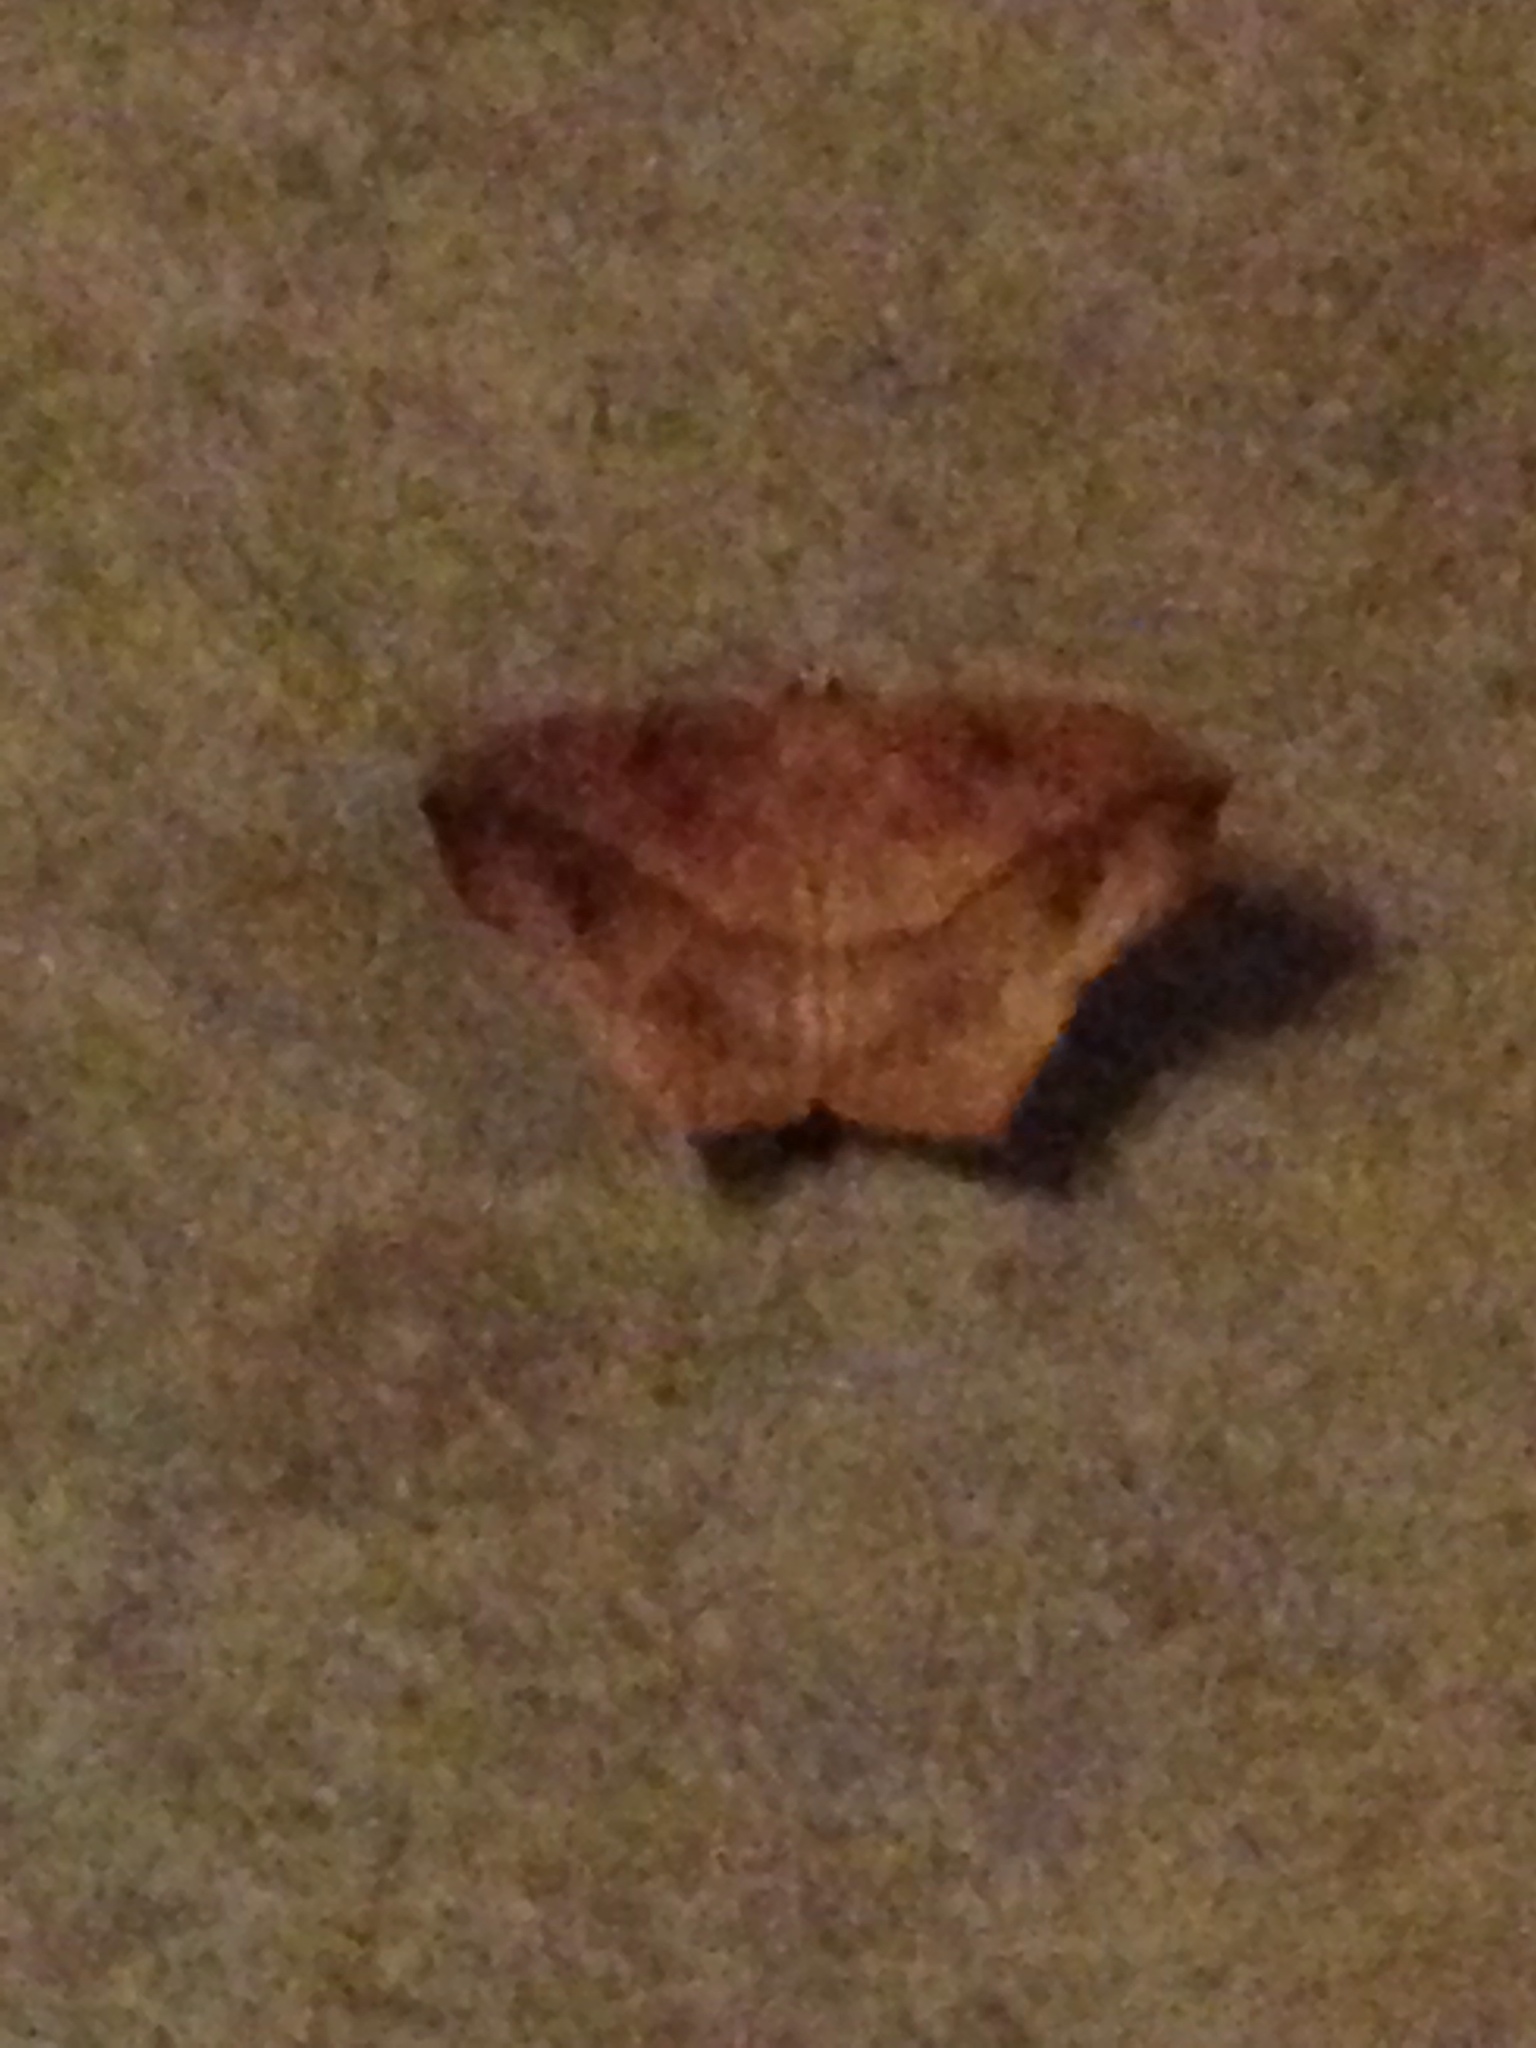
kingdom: Animalia
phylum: Arthropoda
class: Insecta
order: Lepidoptera
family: Geometridae
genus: Prochoerodes
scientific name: Prochoerodes lineola
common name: Large maple spanworm
